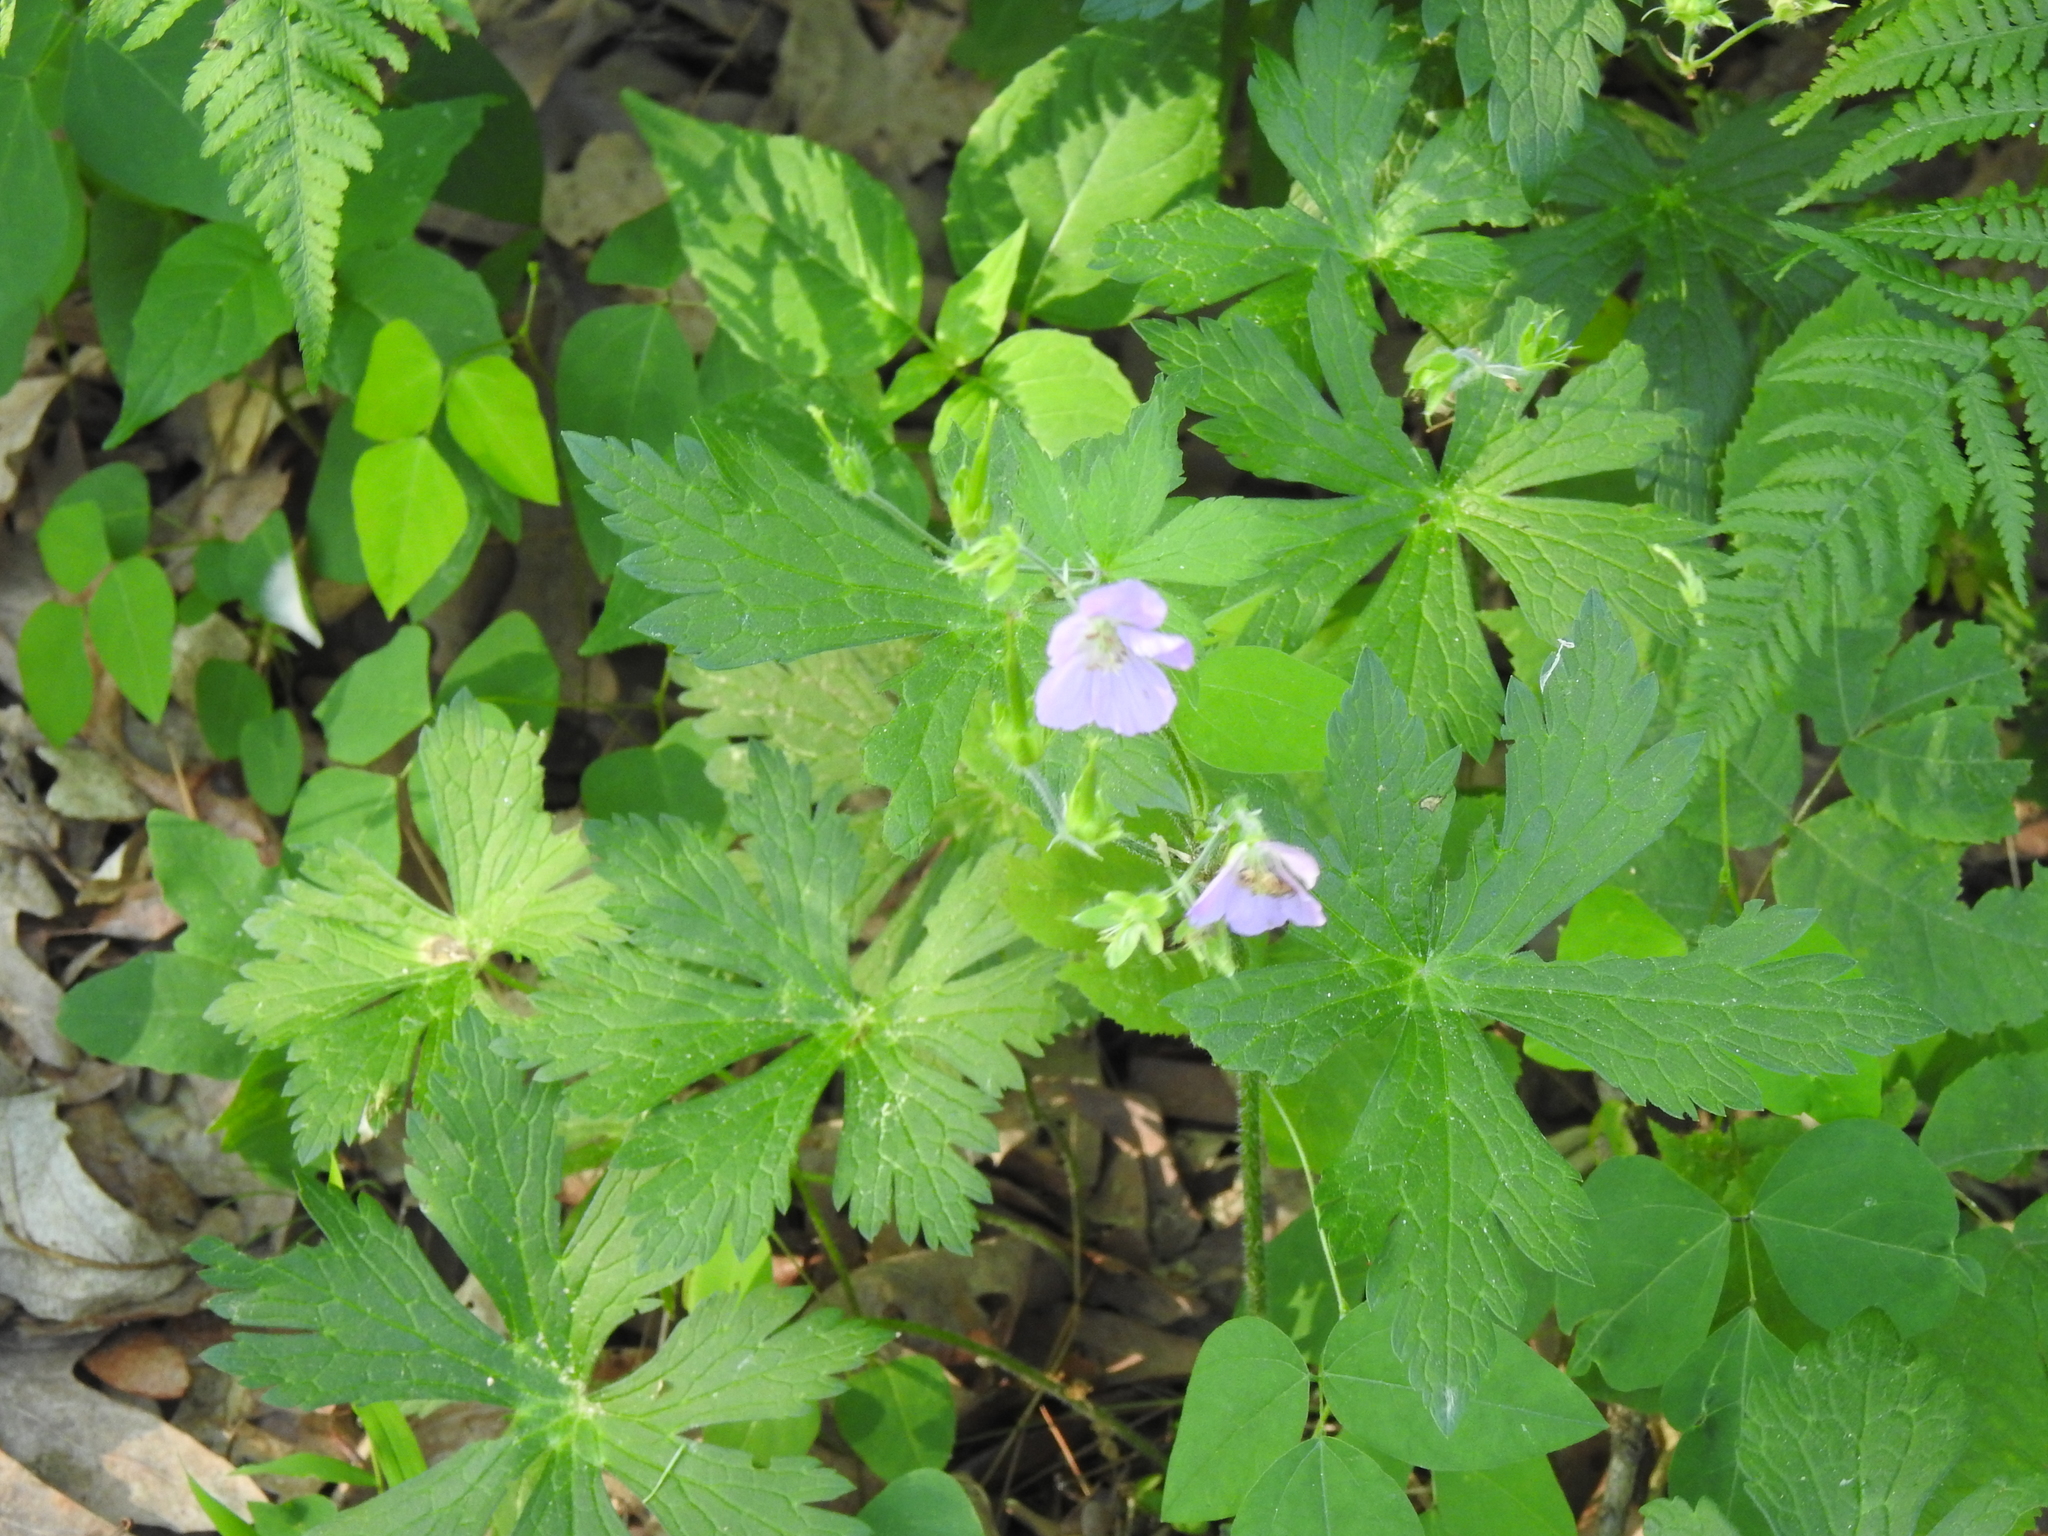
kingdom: Plantae
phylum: Tracheophyta
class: Magnoliopsida
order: Geraniales
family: Geraniaceae
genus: Geranium
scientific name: Geranium maculatum
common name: Spotted geranium
